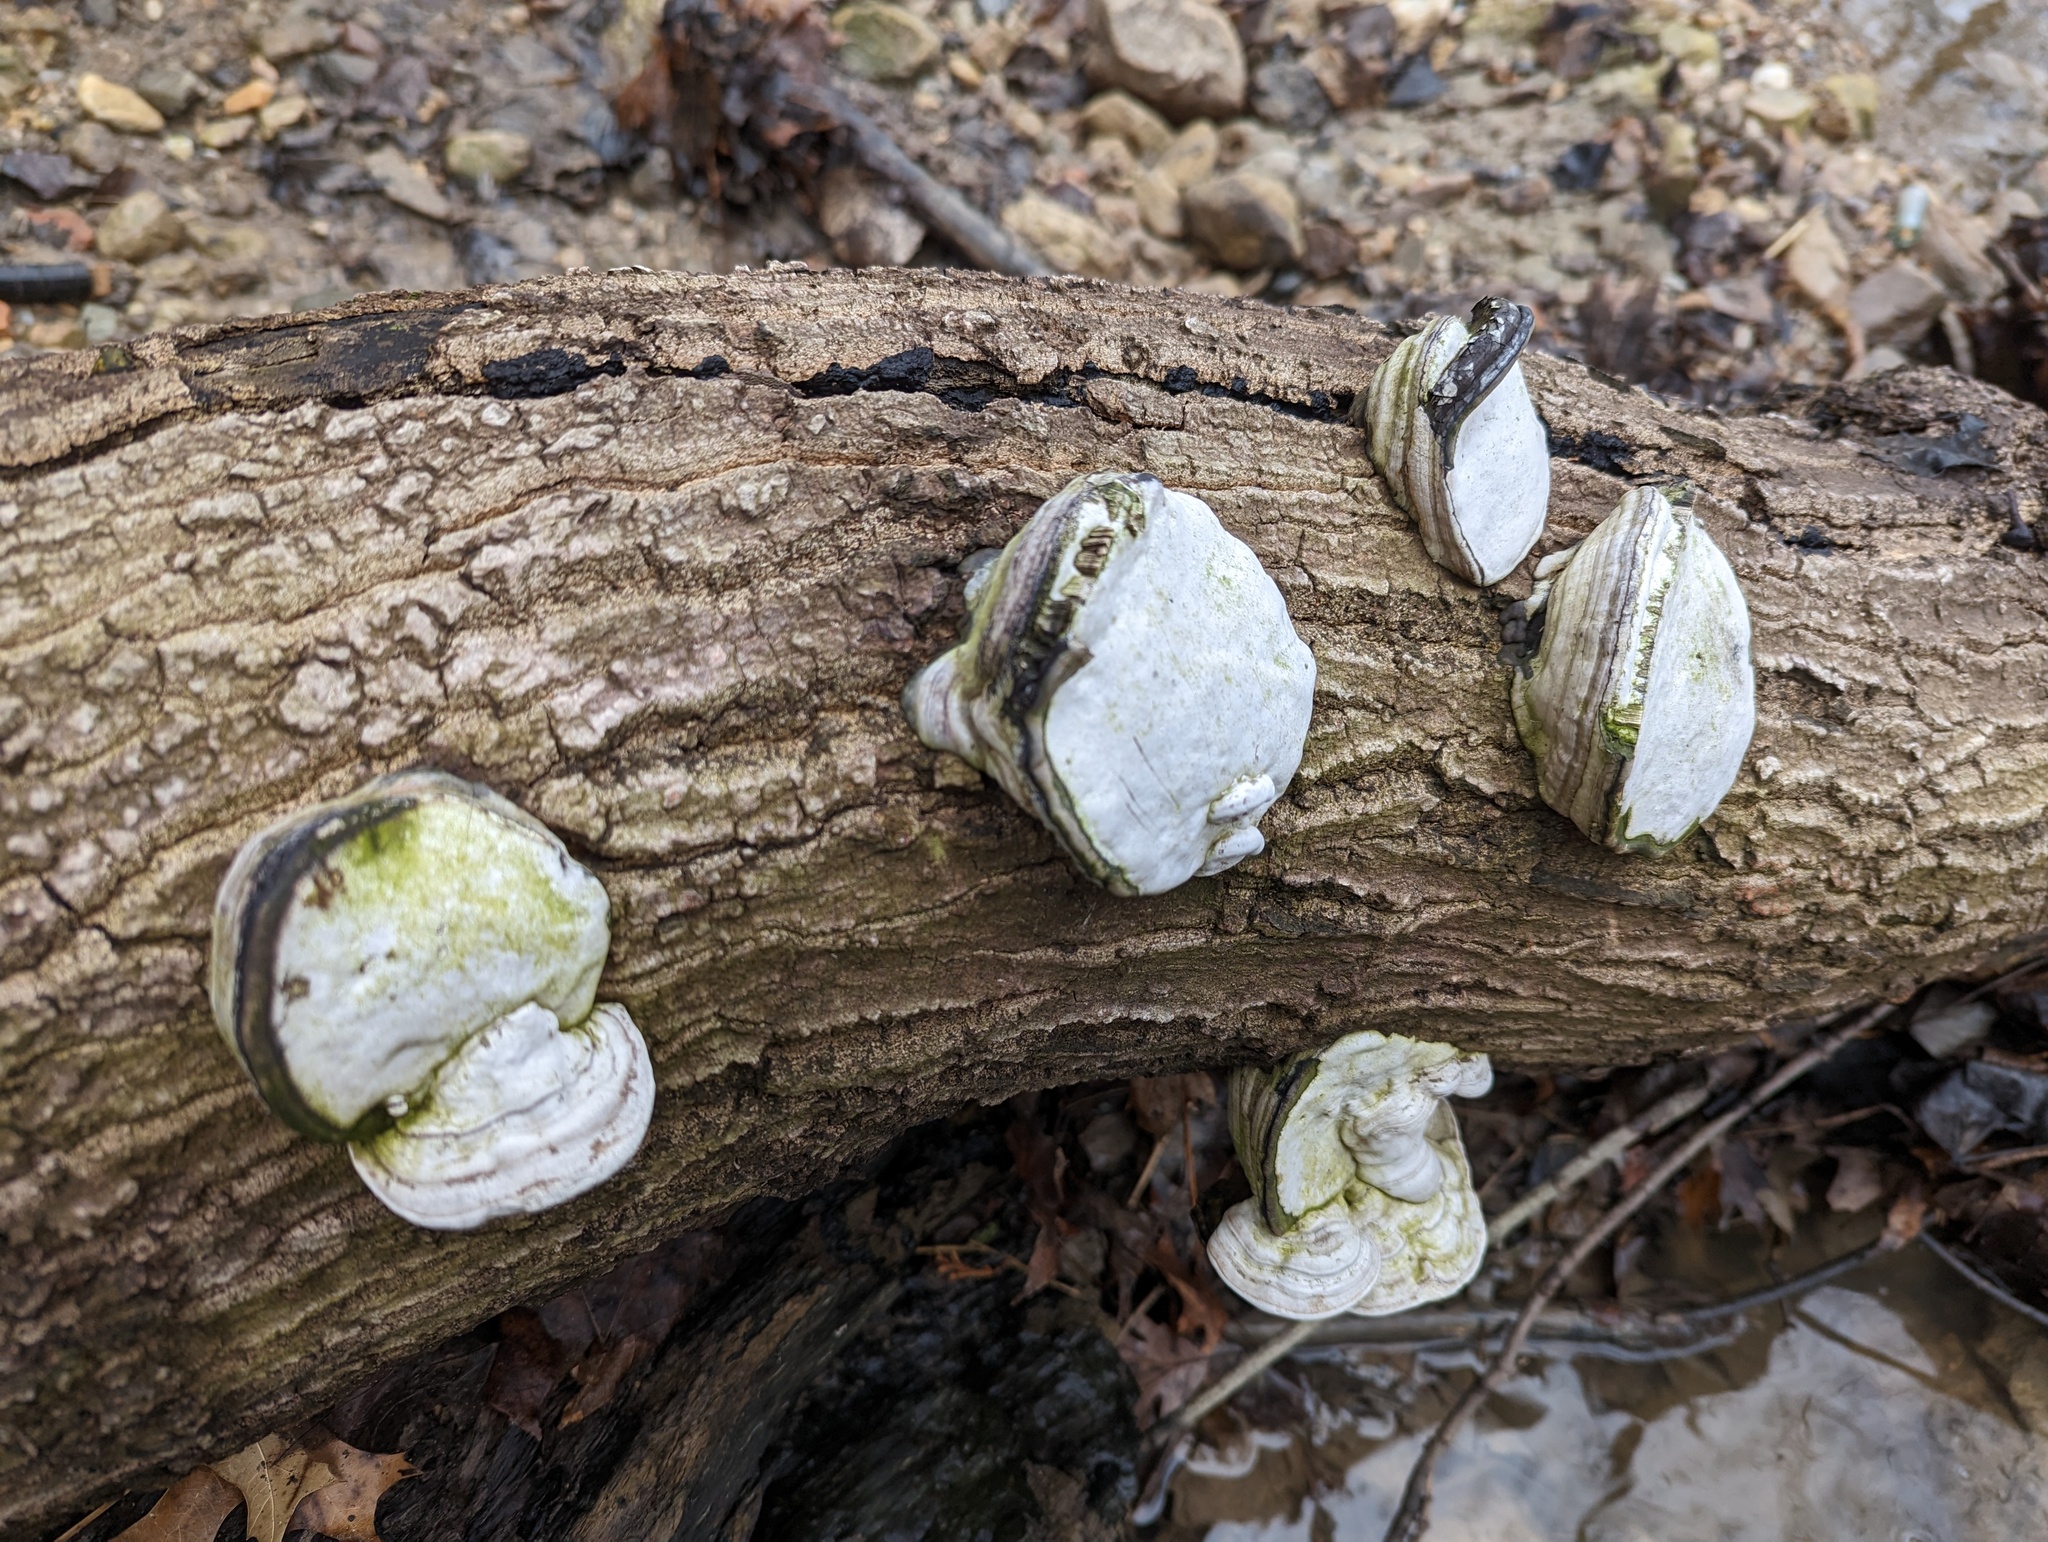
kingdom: Fungi
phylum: Basidiomycota
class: Agaricomycetes
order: Polyporales
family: Polyporaceae
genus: Fomes
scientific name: Fomes fomentarius
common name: Hoof fungus
